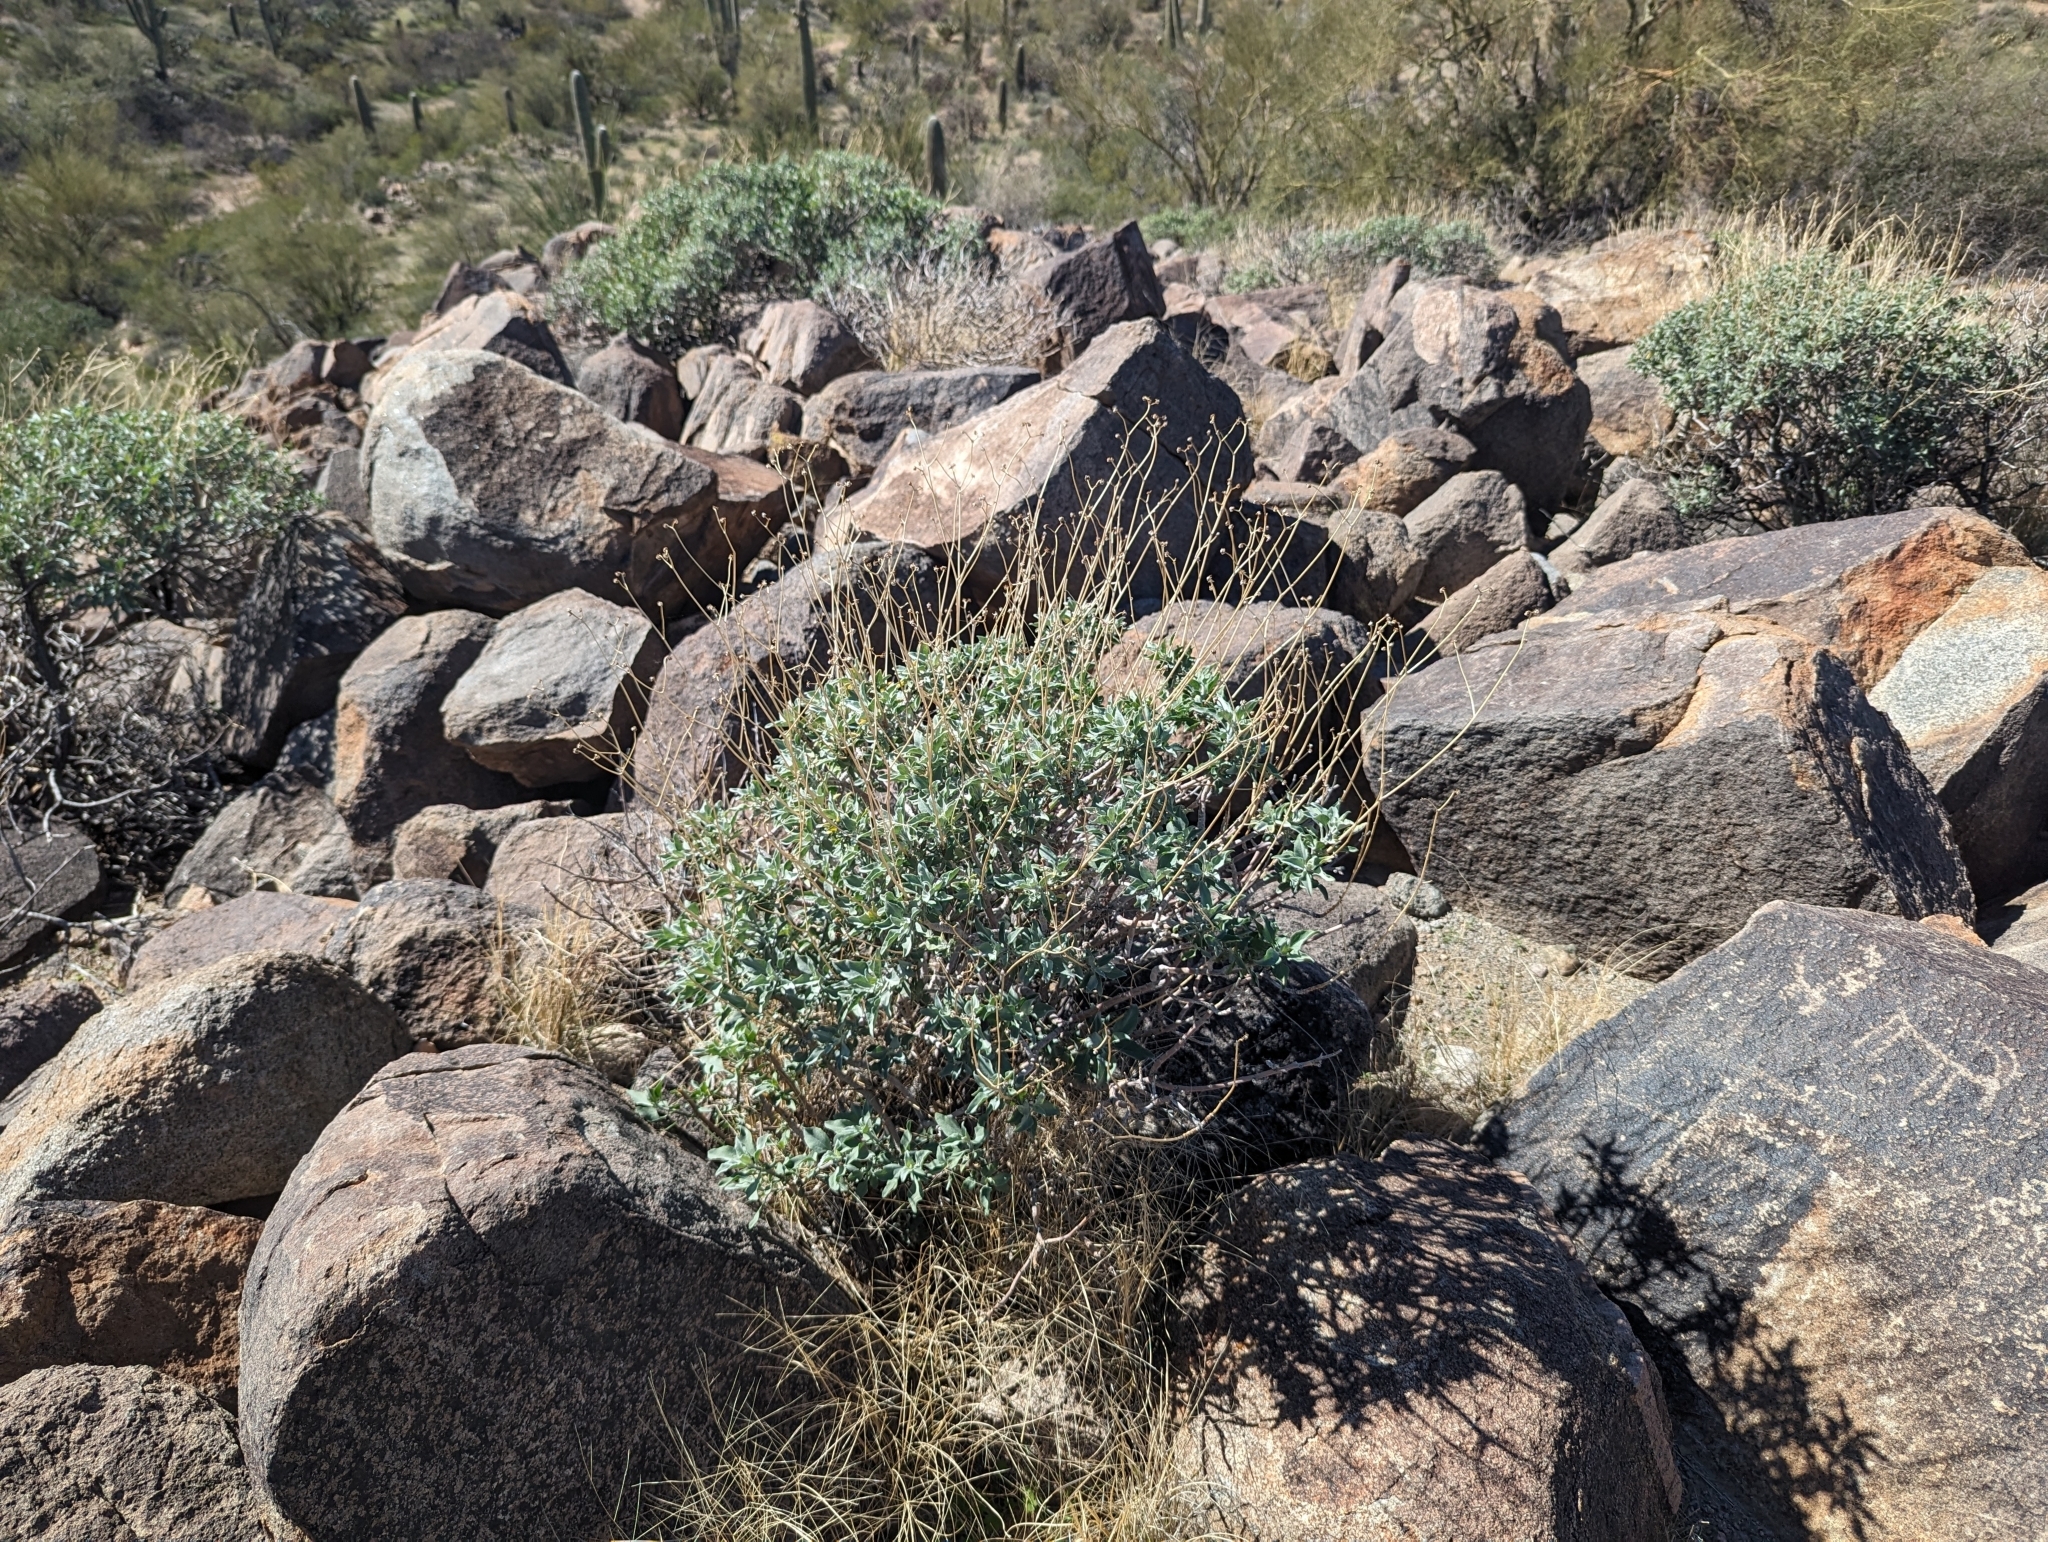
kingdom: Plantae
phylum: Tracheophyta
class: Magnoliopsida
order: Asterales
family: Asteraceae
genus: Encelia
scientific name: Encelia farinosa
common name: Brittlebush
